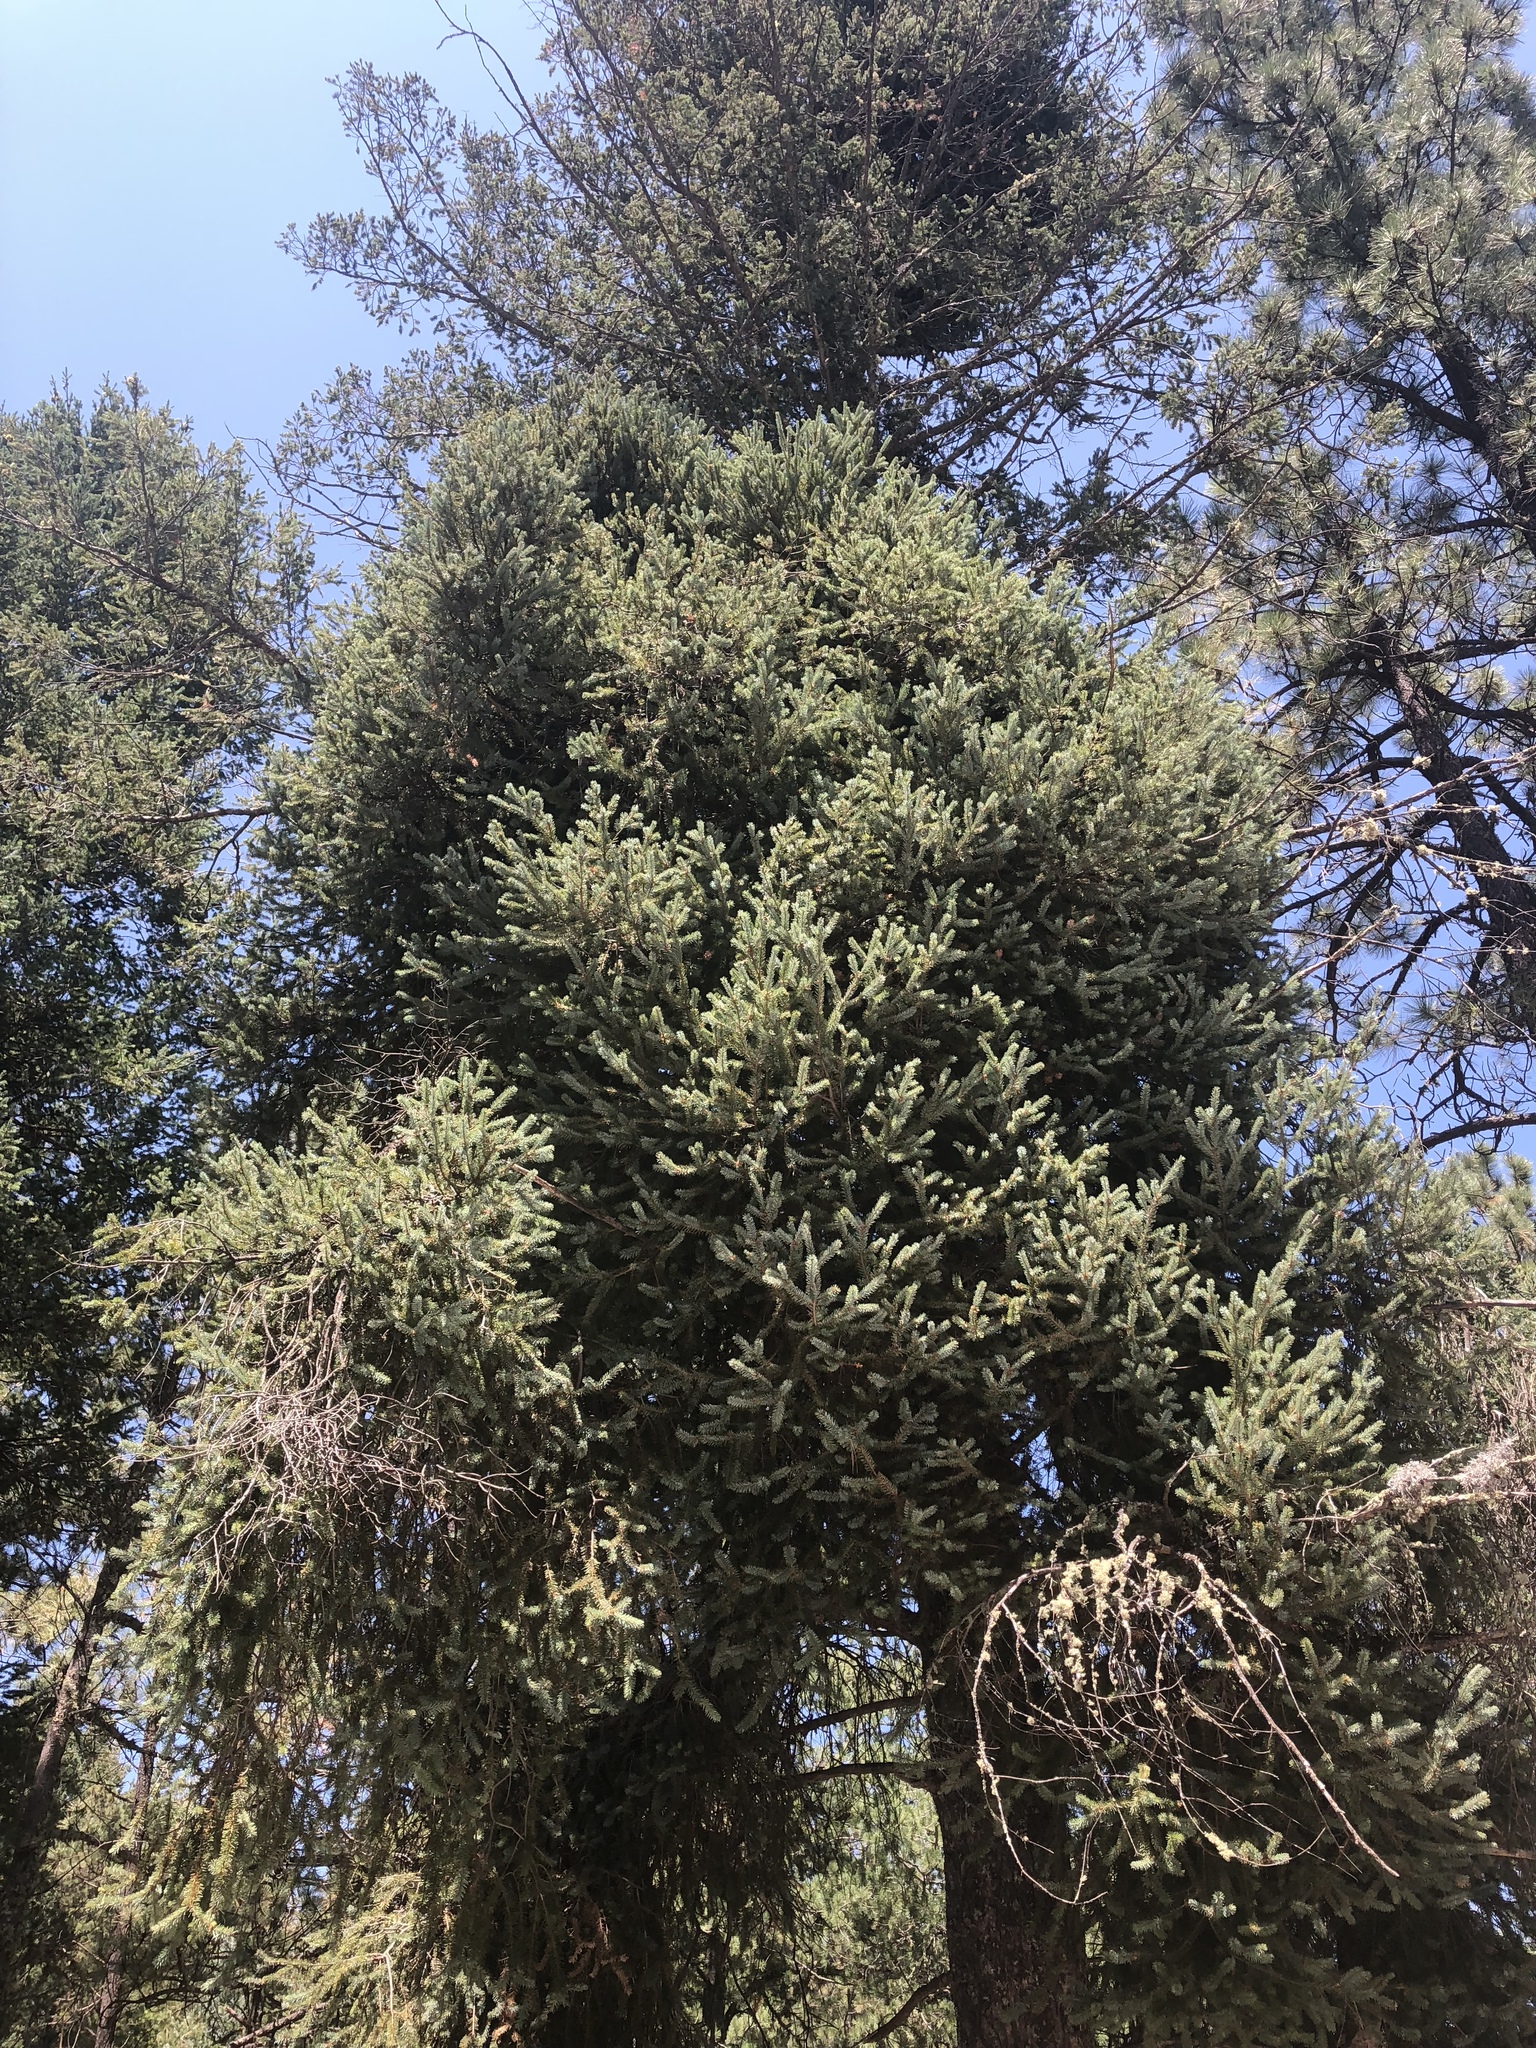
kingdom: Plantae
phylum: Tracheophyta
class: Pinopsida
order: Pinales
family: Pinaceae
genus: Abies
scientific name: Abies concolor
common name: Colorado fir
